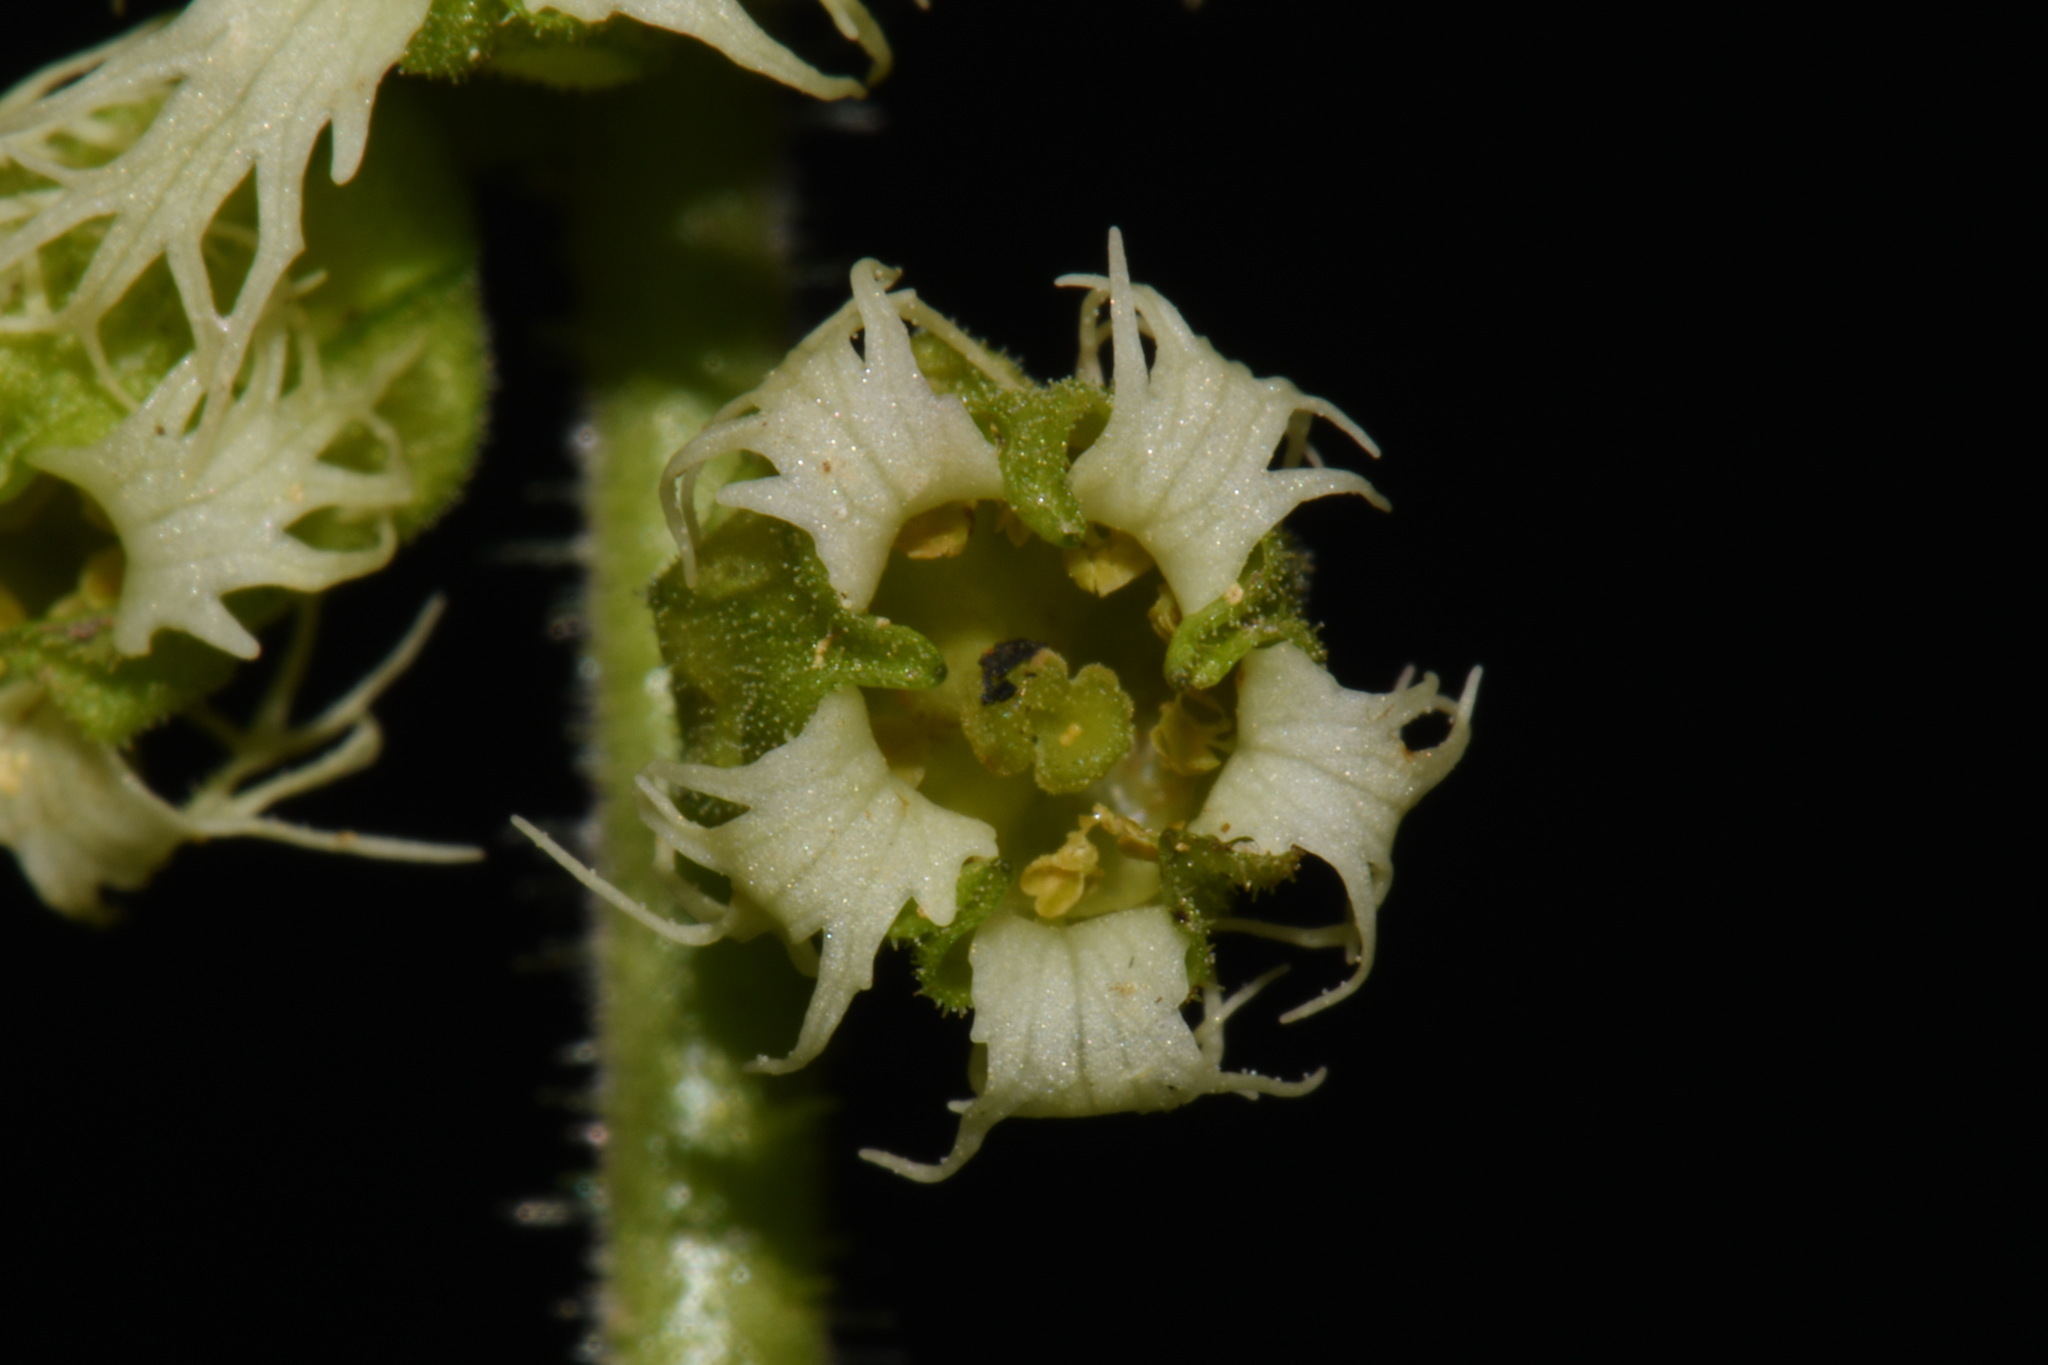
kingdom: Plantae
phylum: Tracheophyta
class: Magnoliopsida
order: Saxifragales
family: Saxifragaceae
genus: Tellima
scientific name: Tellima grandiflora
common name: Fringecups
